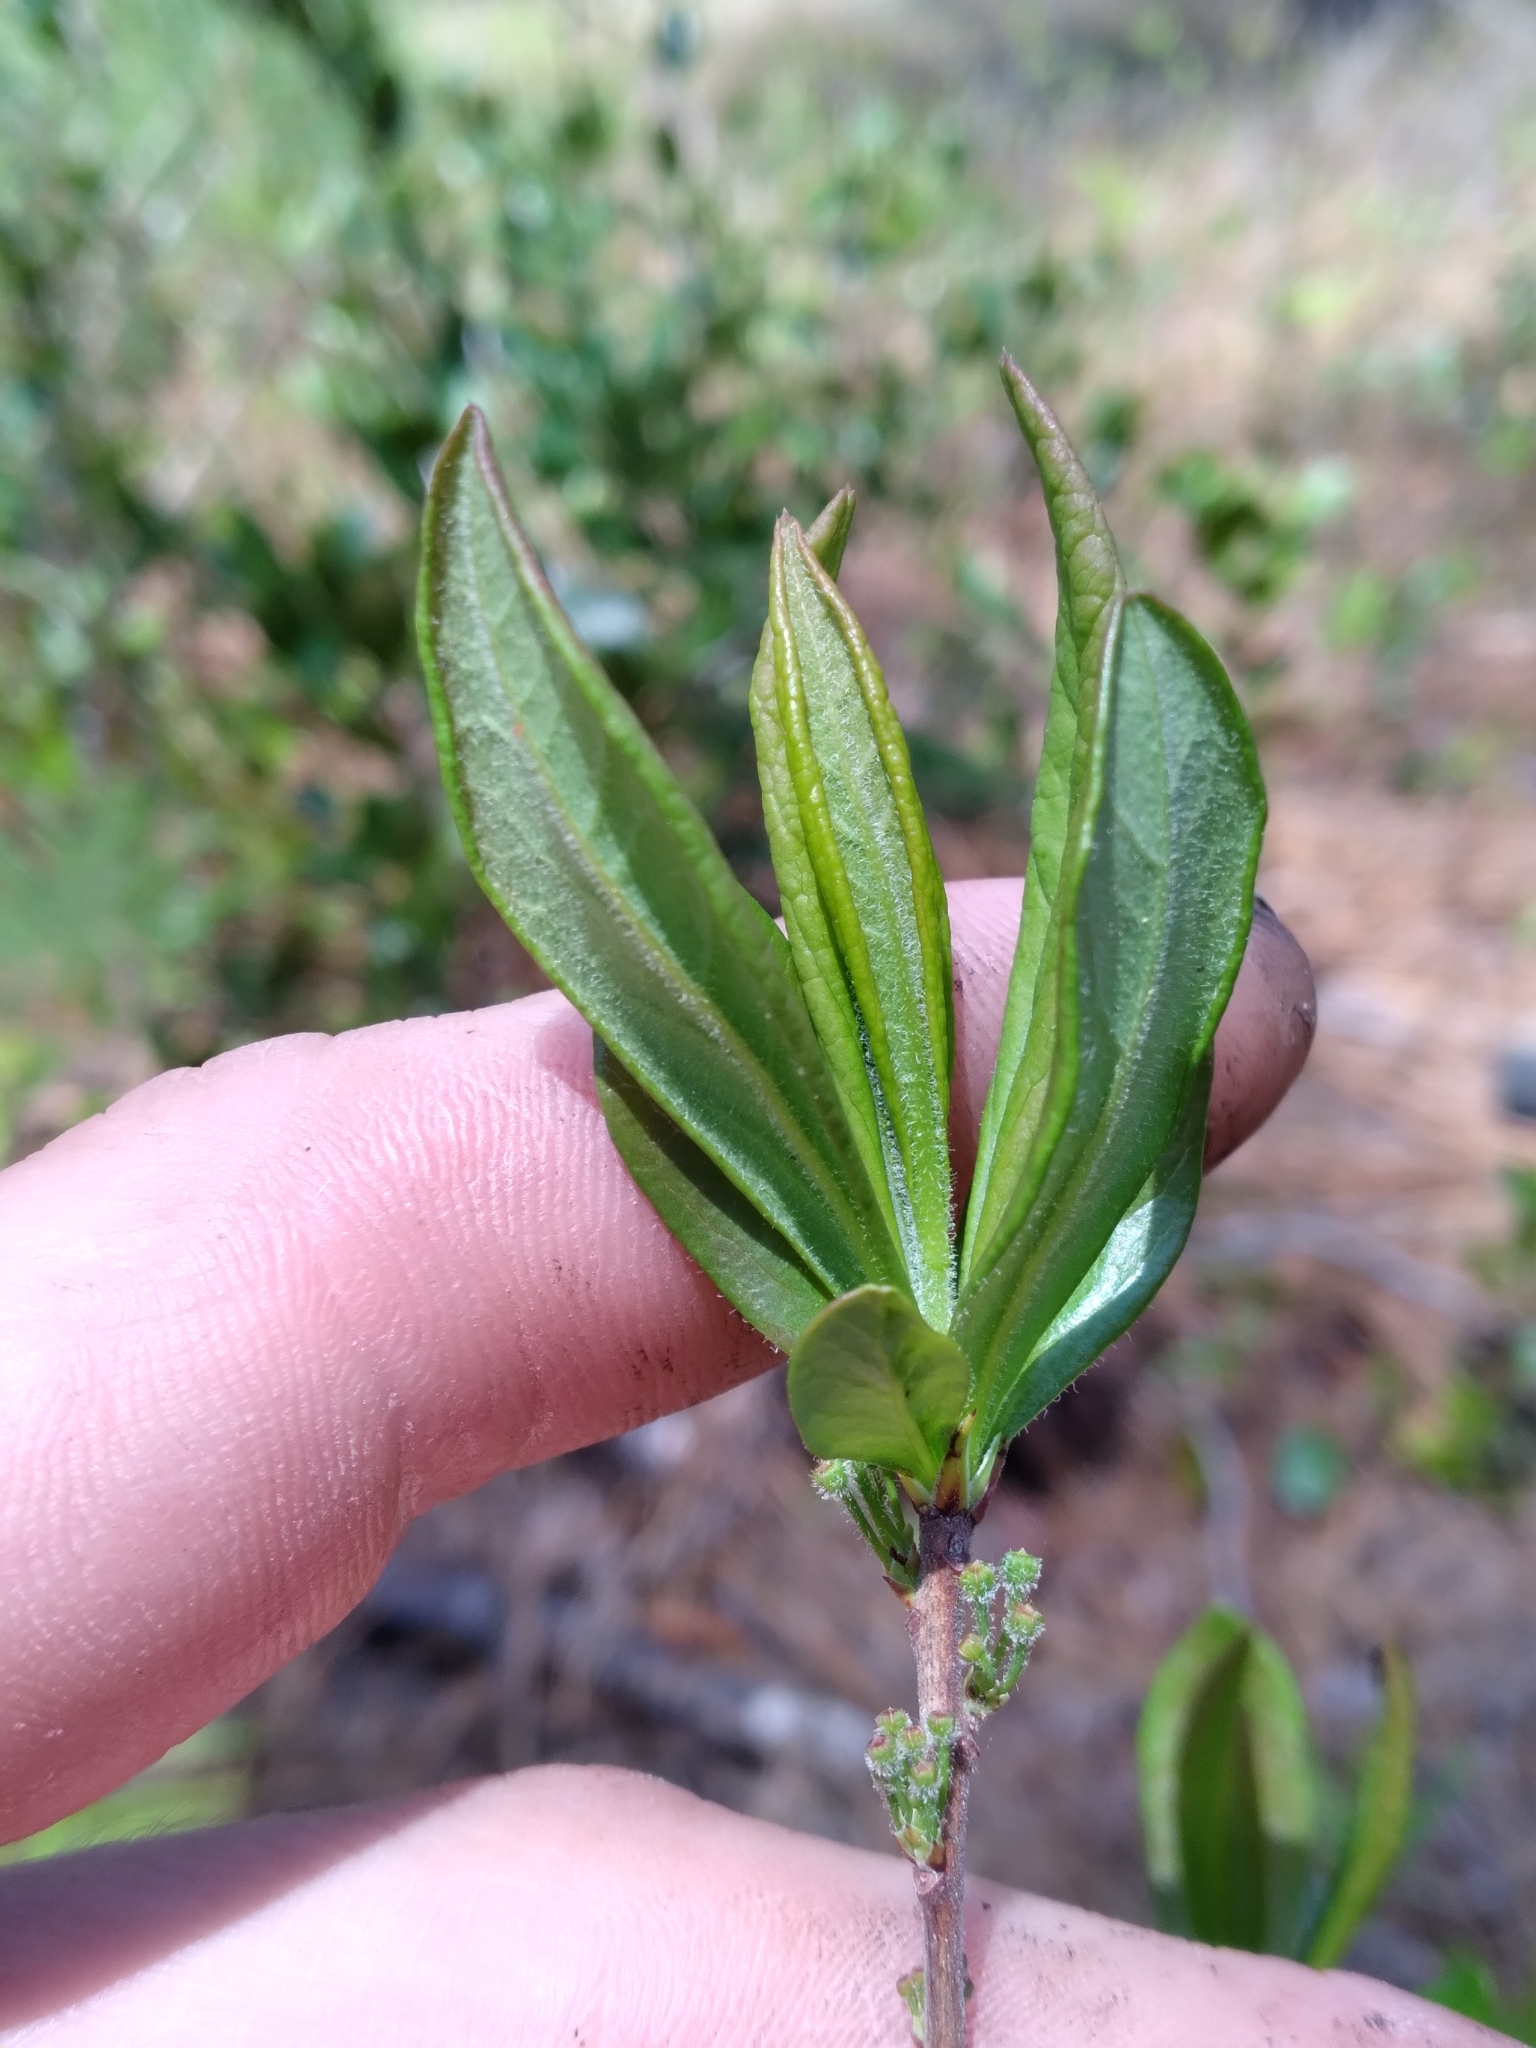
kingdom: Plantae
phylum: Tracheophyta
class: Magnoliopsida
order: Ericales
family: Ericaceae
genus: Kalmia
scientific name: Kalmia cuneata
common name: White wicky
